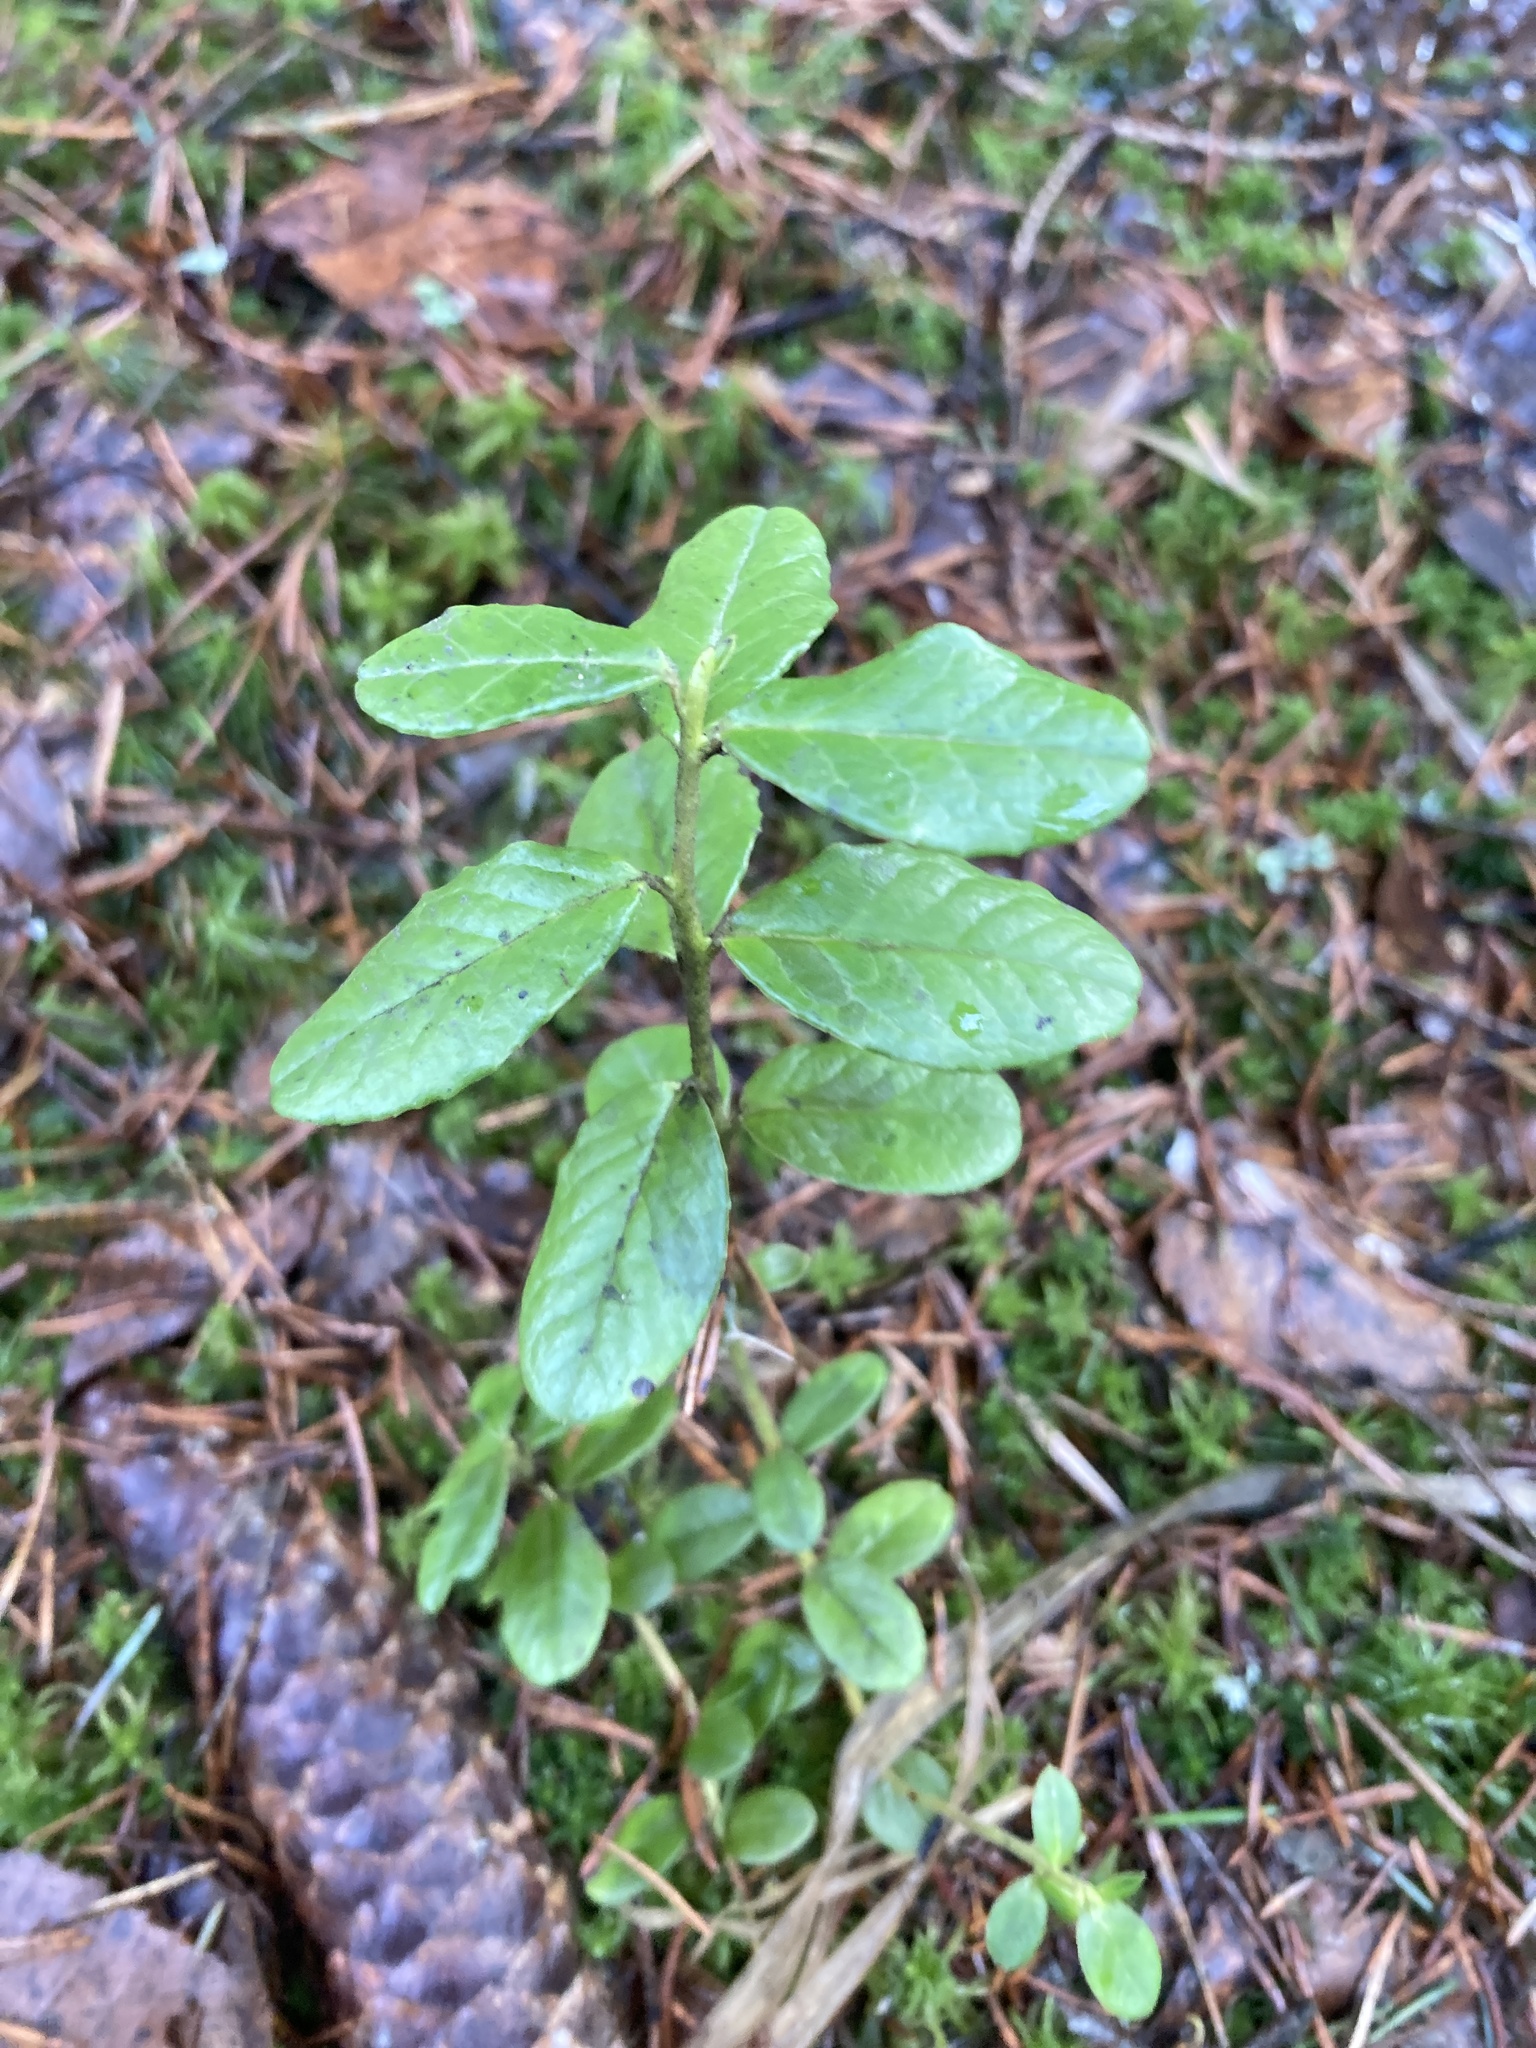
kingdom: Plantae
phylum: Tracheophyta
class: Magnoliopsida
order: Ericales
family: Ericaceae
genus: Vaccinium
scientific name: Vaccinium vitis-idaea
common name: Cowberry
